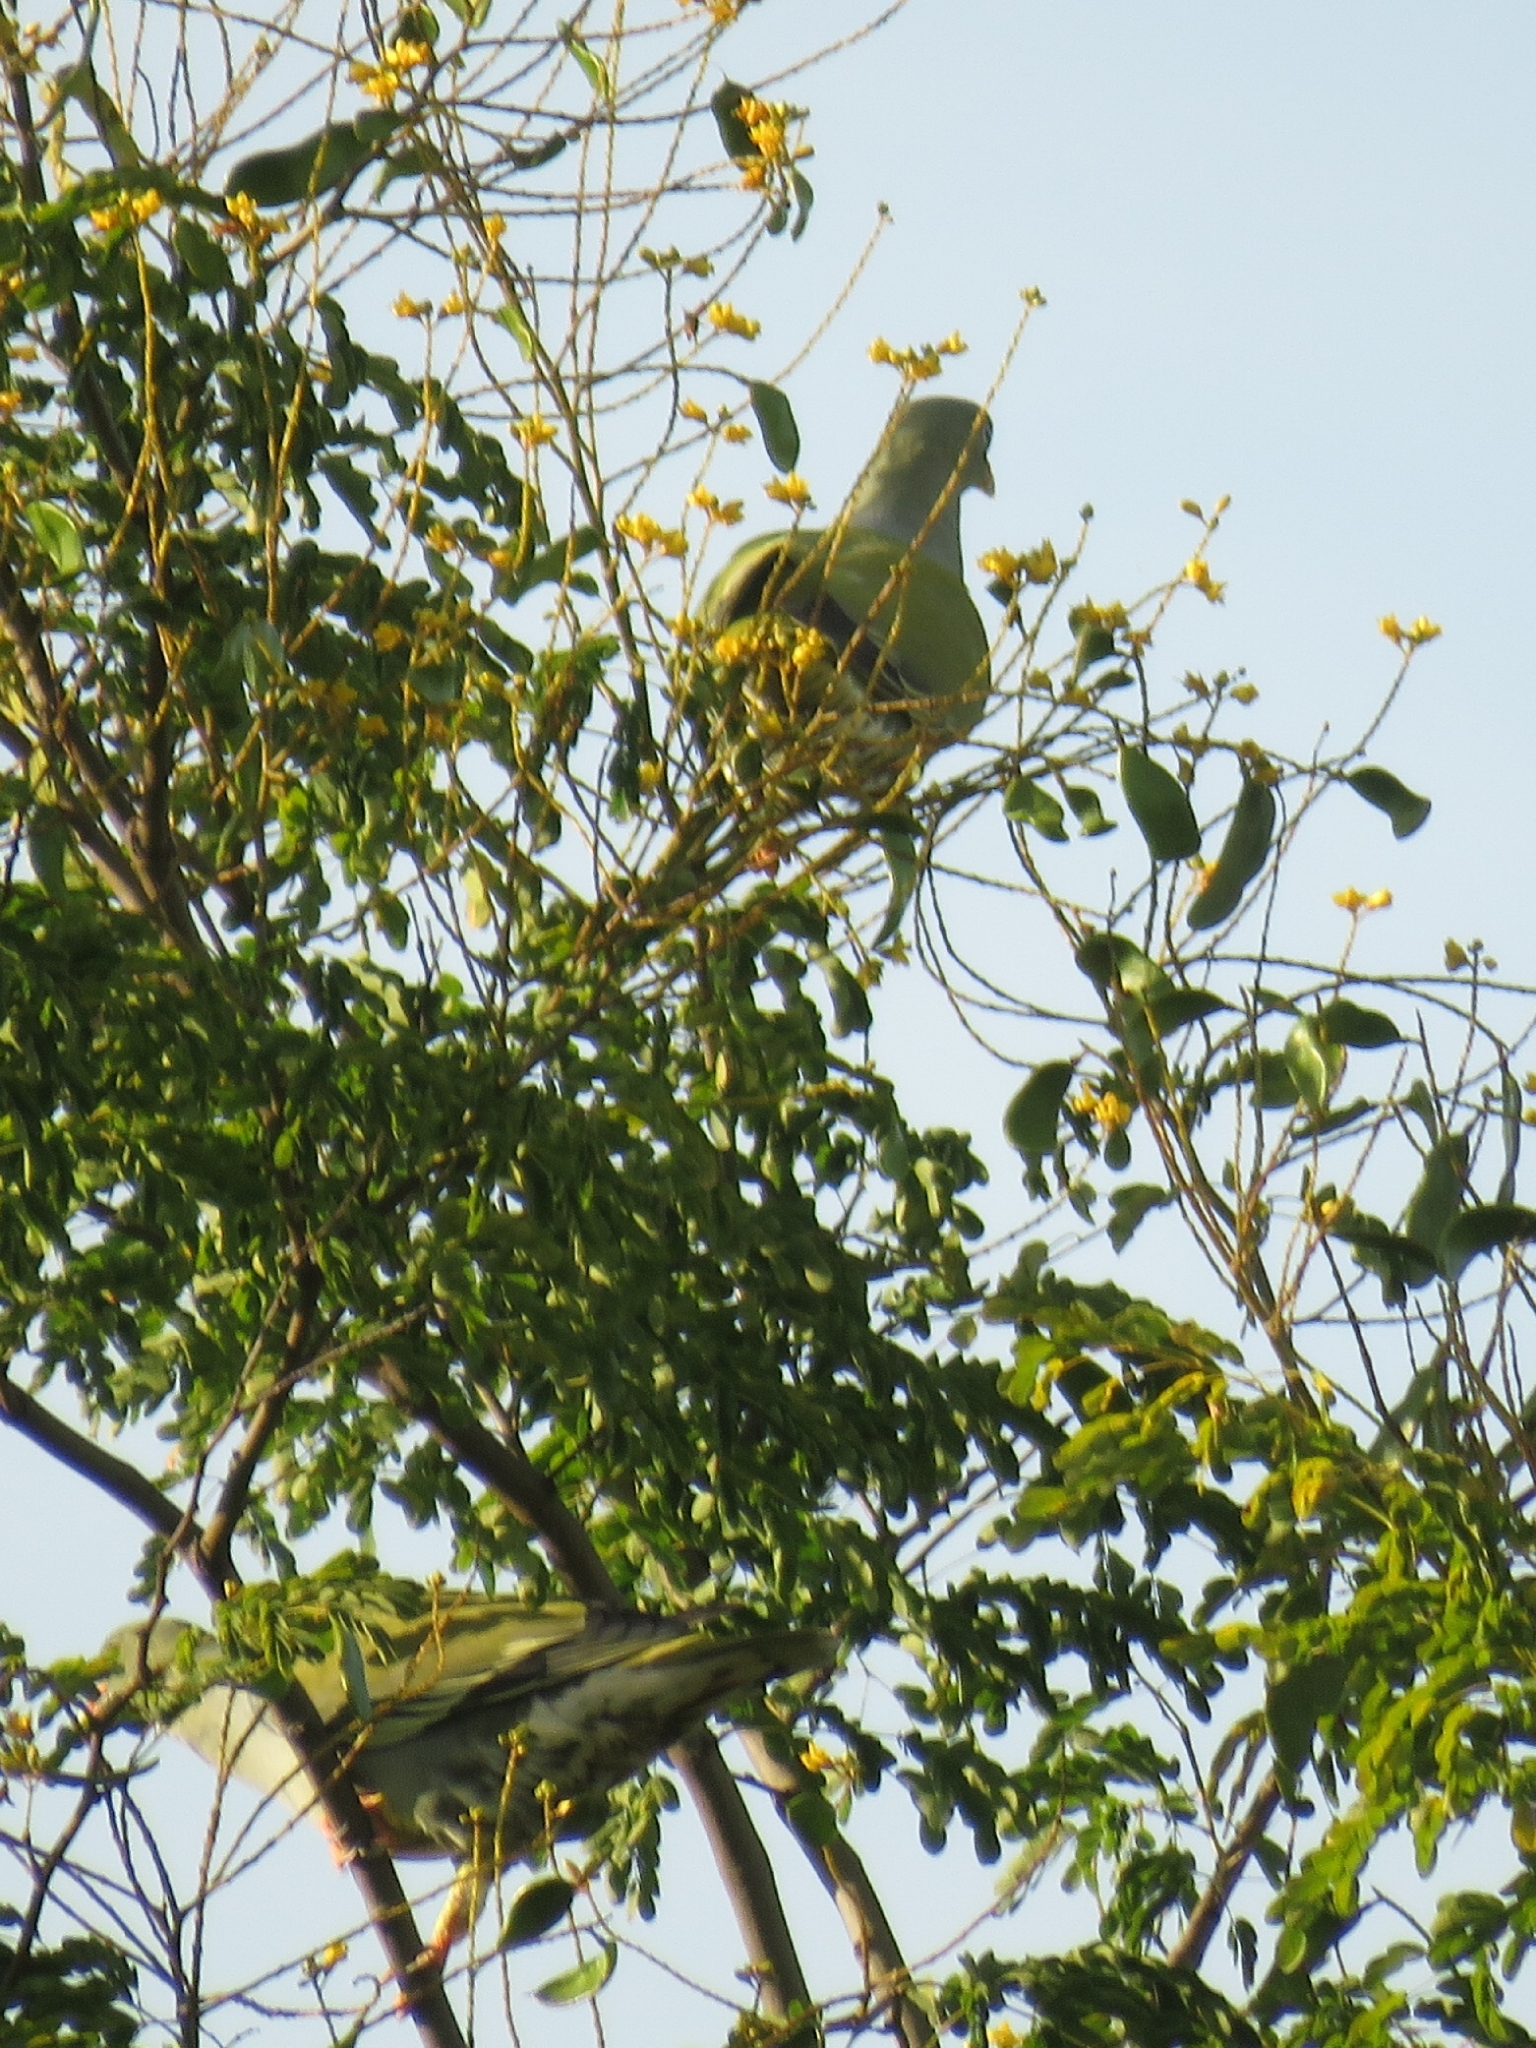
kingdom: Animalia
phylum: Chordata
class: Aves
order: Columbiformes
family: Columbidae
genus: Treron
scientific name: Treron calvus
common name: African green pigeon
